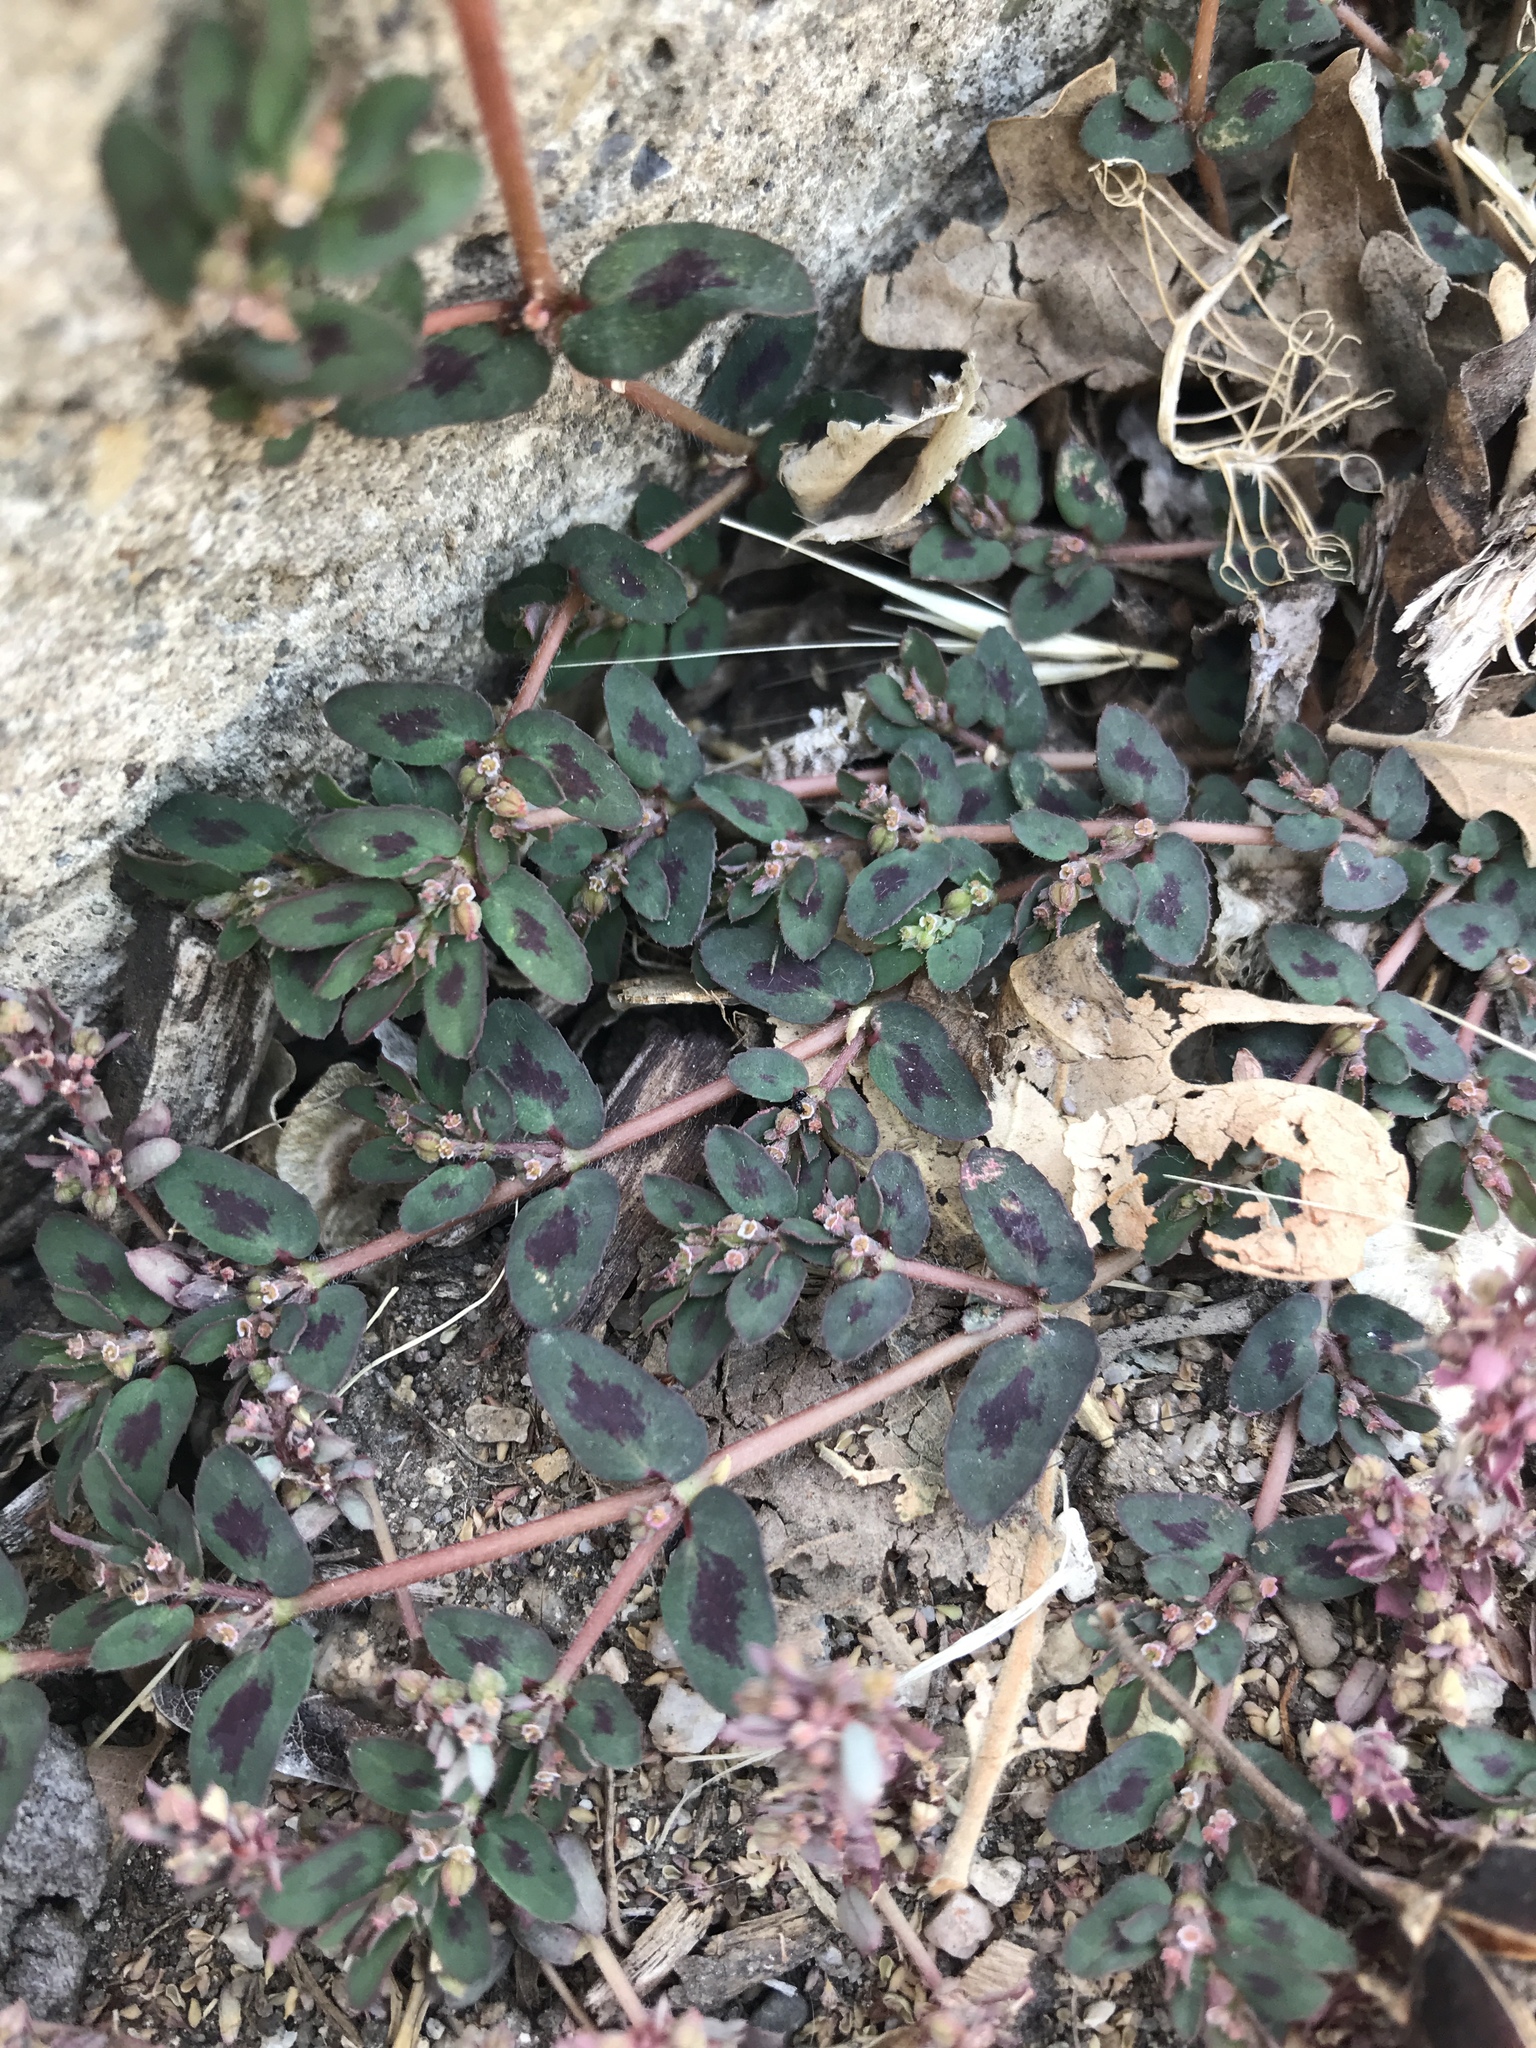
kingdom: Plantae
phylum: Tracheophyta
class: Magnoliopsida
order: Malpighiales
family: Euphorbiaceae
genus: Euphorbia
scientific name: Euphorbia maculata
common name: Spotted spurge
